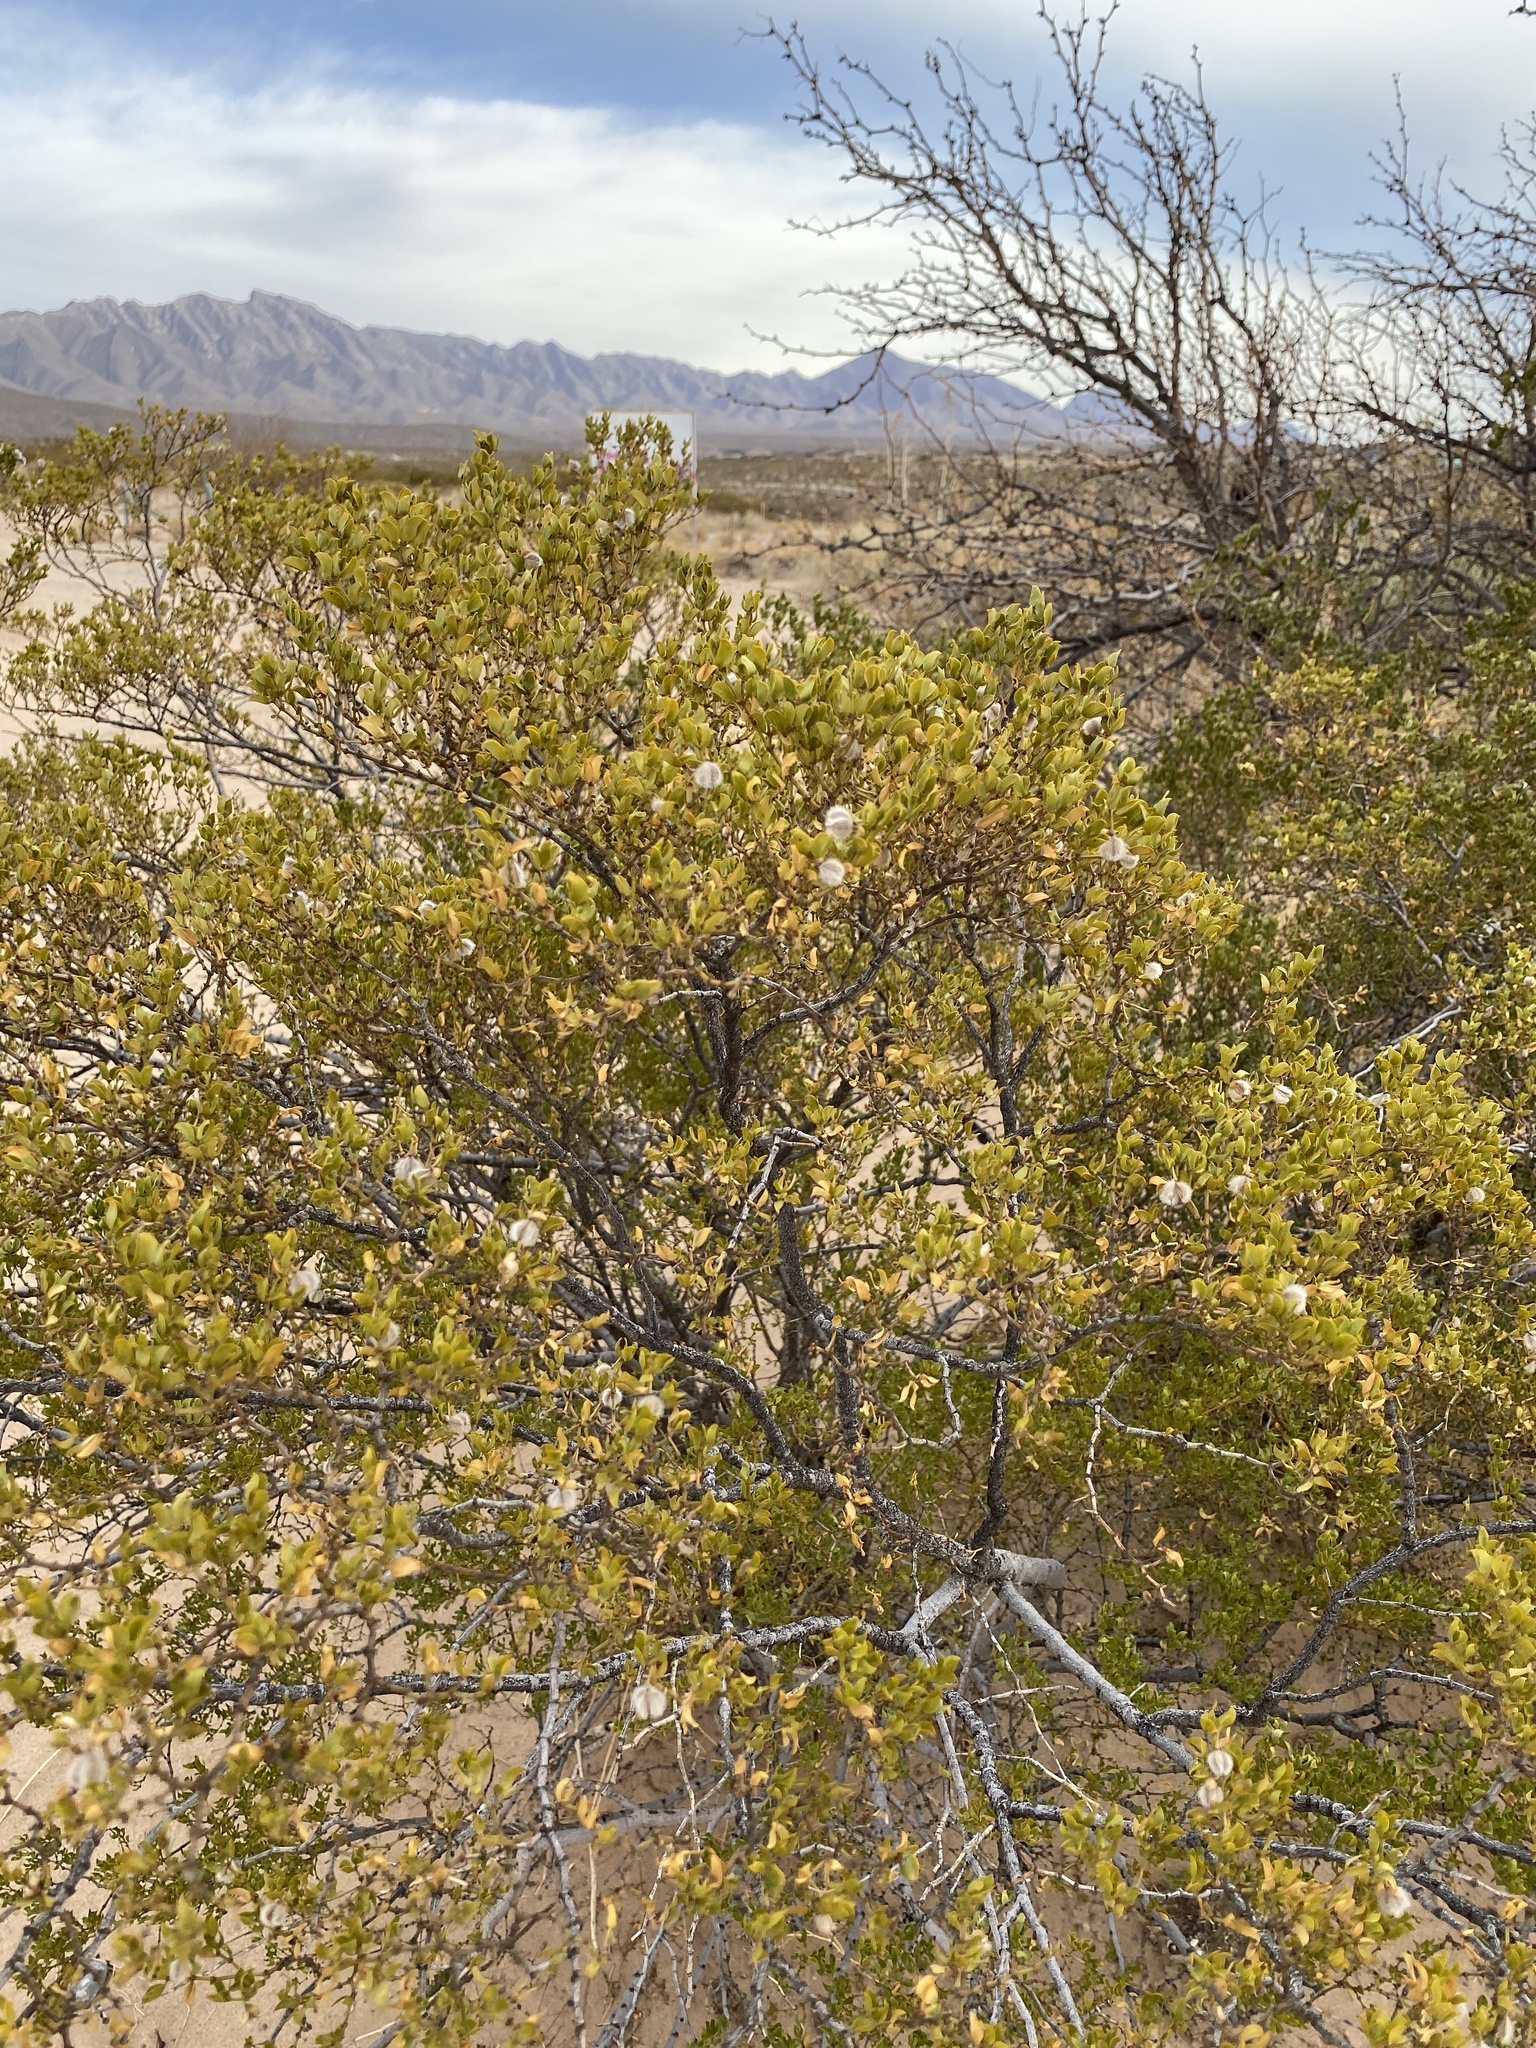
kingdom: Plantae
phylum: Tracheophyta
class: Magnoliopsida
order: Zygophyllales
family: Zygophyllaceae
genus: Larrea
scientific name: Larrea tridentata
